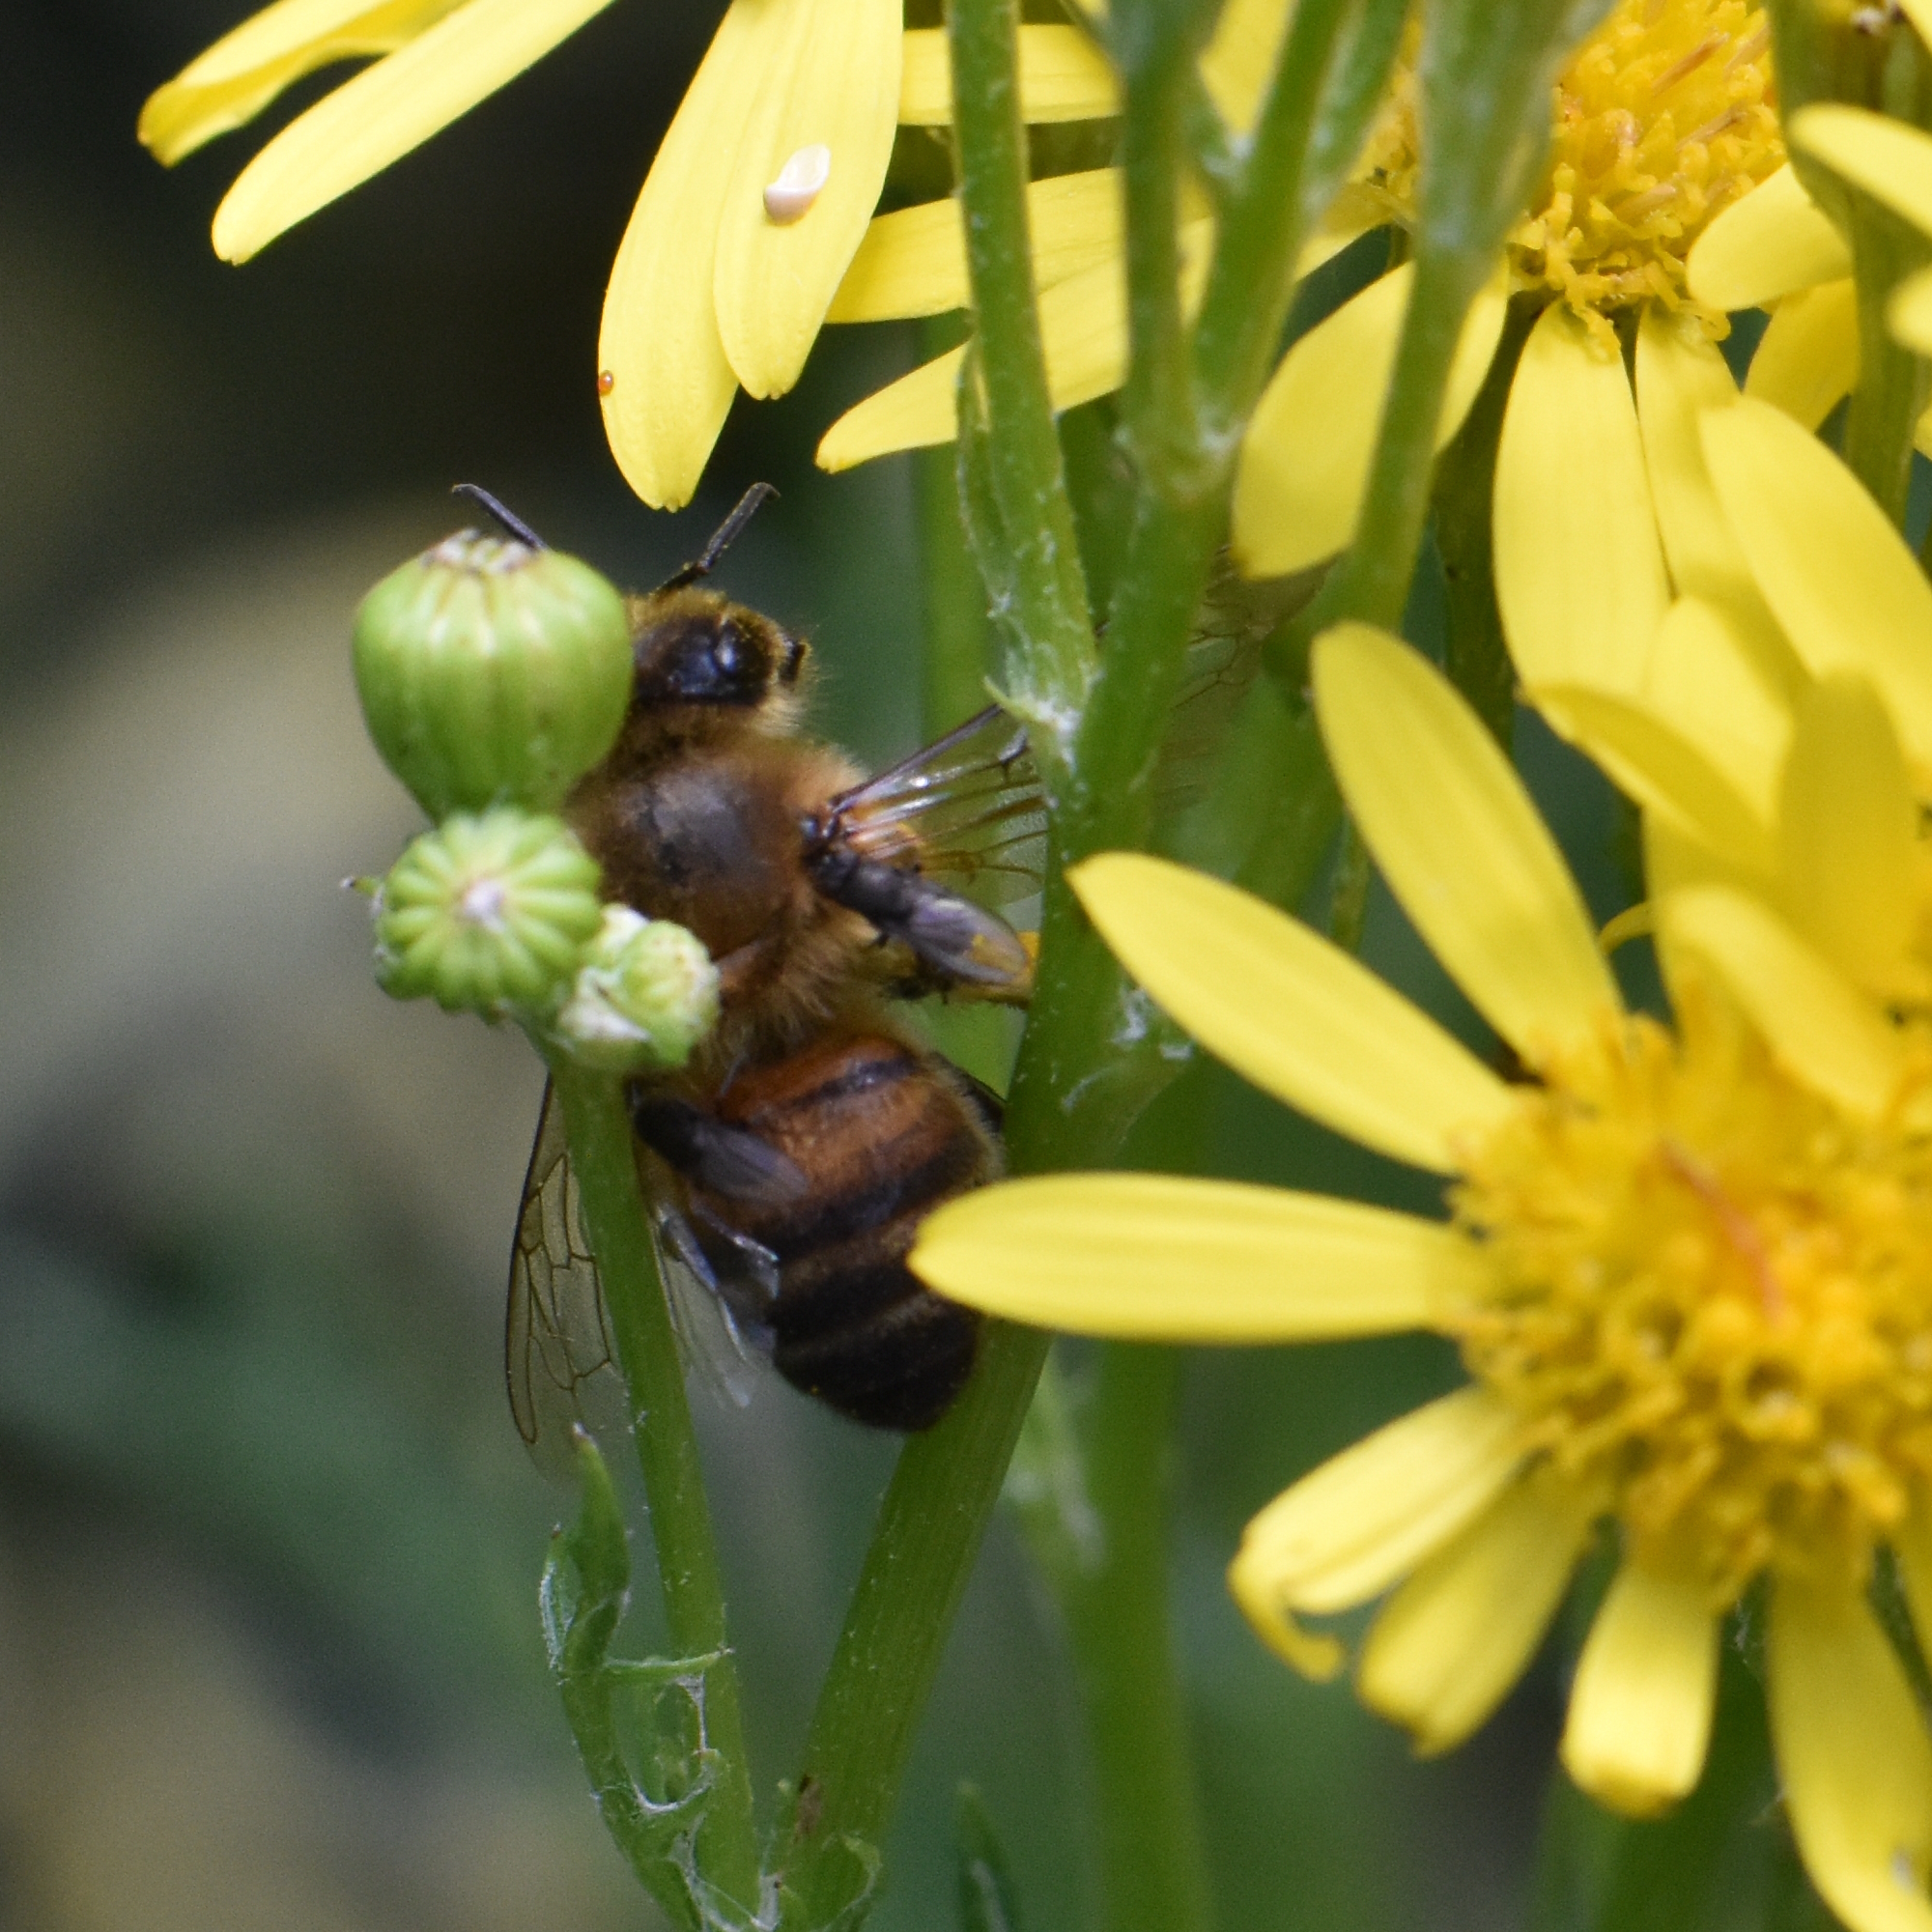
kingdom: Animalia
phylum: Arthropoda
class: Insecta
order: Hymenoptera
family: Apidae
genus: Apis
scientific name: Apis mellifera
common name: Honey bee
